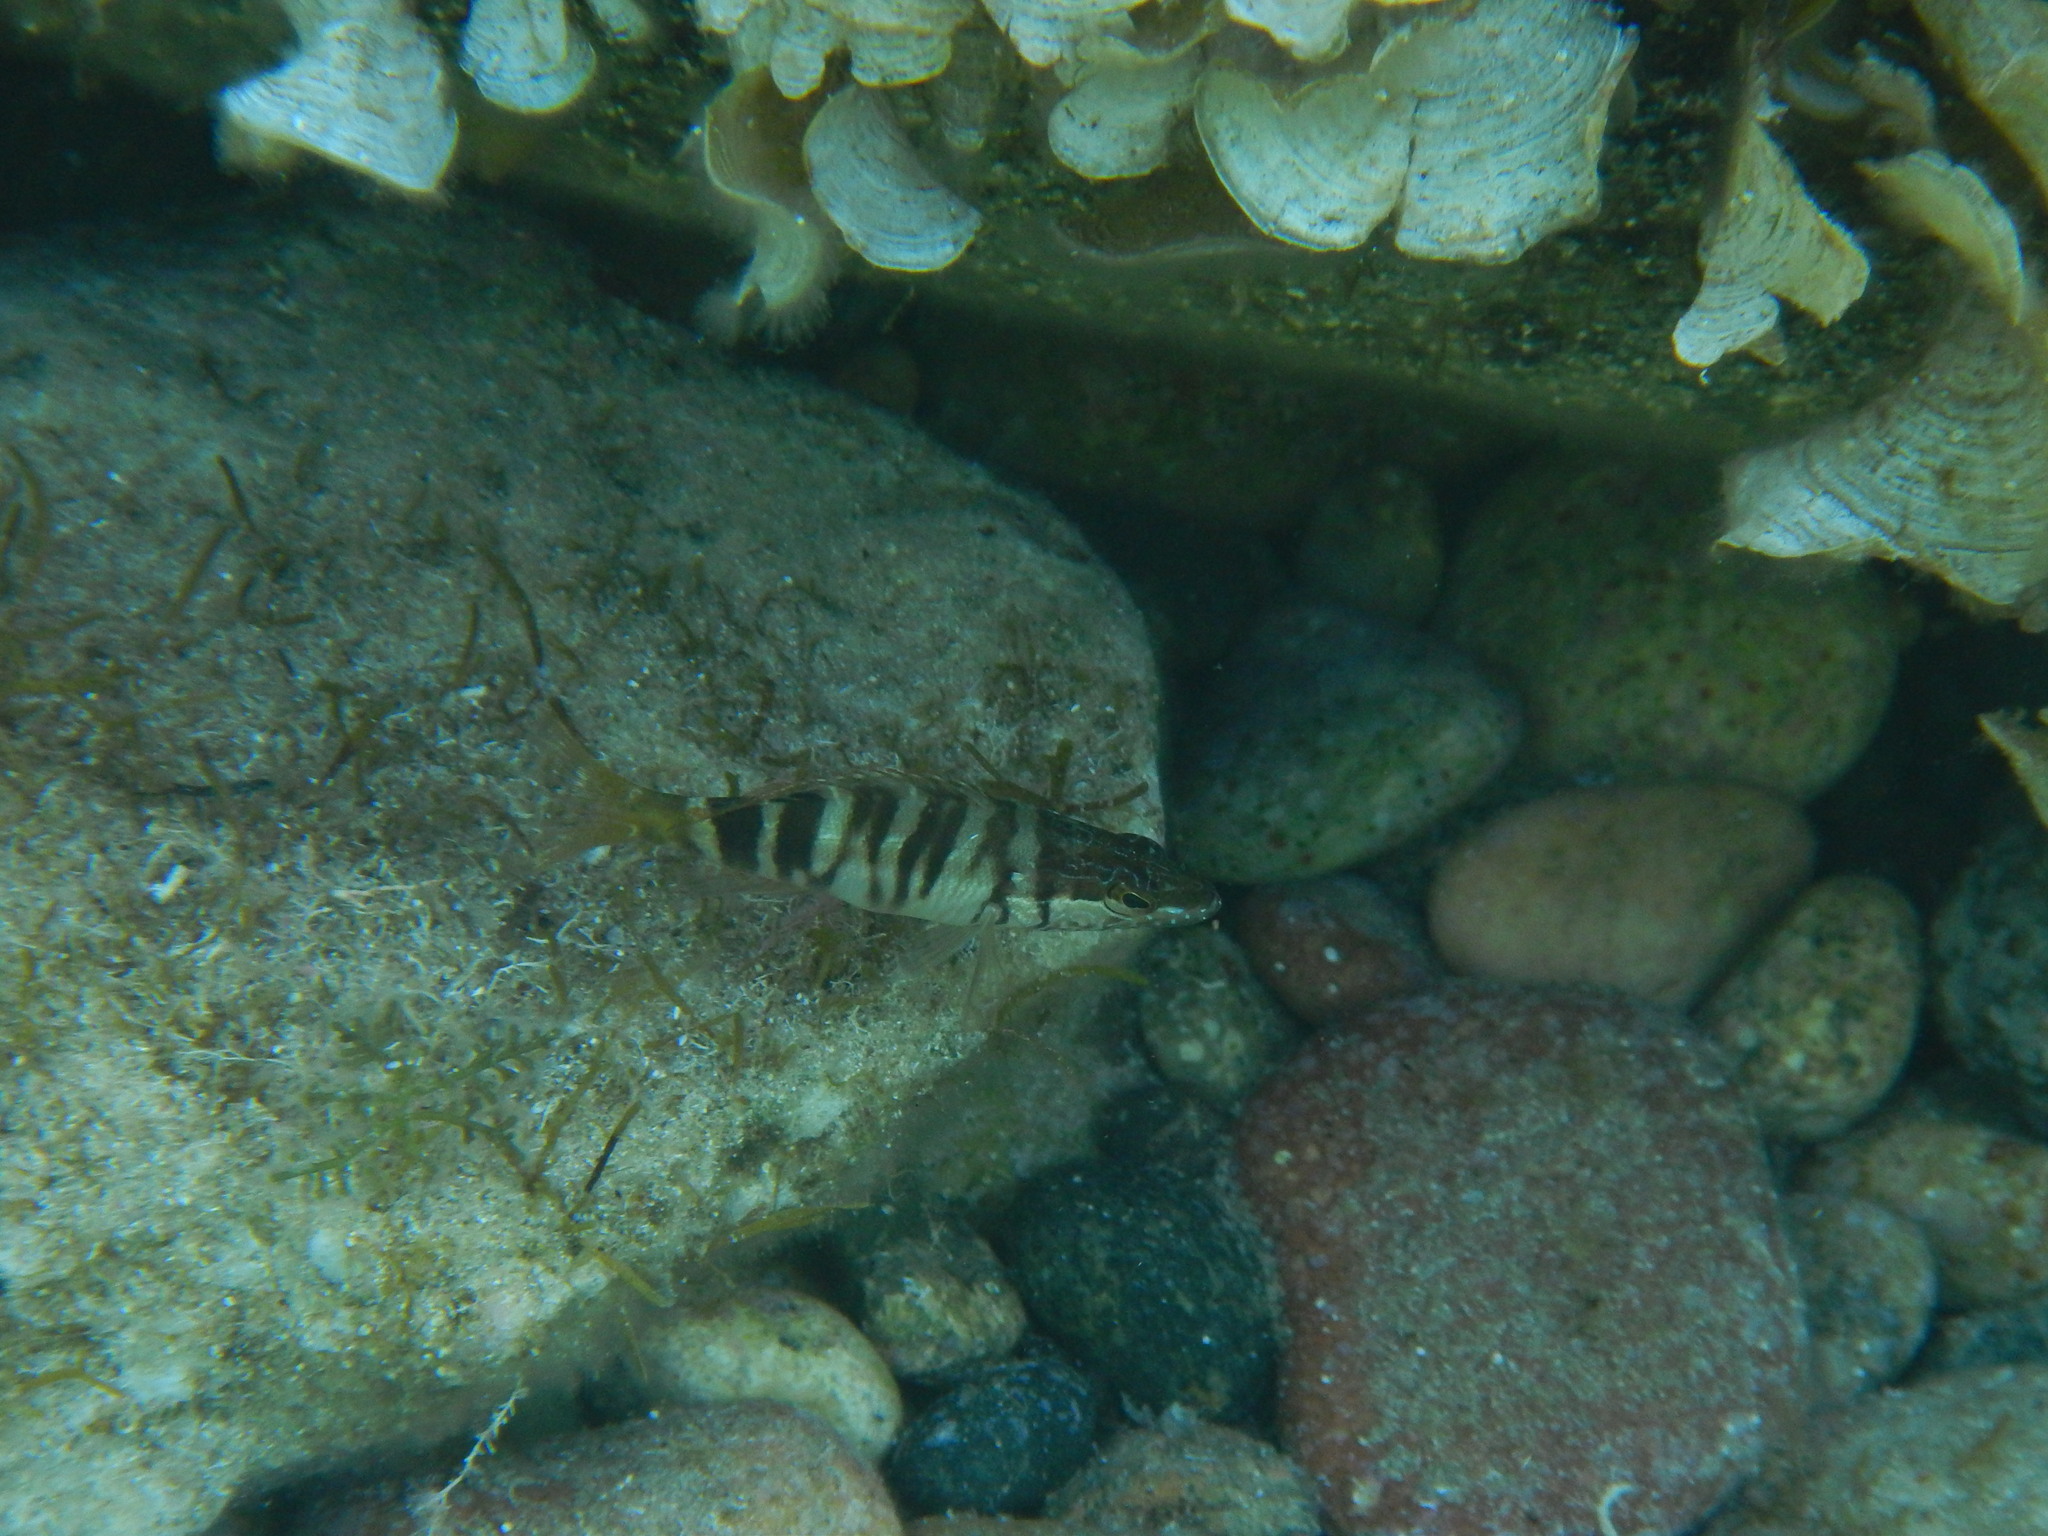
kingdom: Animalia
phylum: Chordata
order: Perciformes
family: Serranidae
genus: Serranus
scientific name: Serranus scriba
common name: Painted comber
